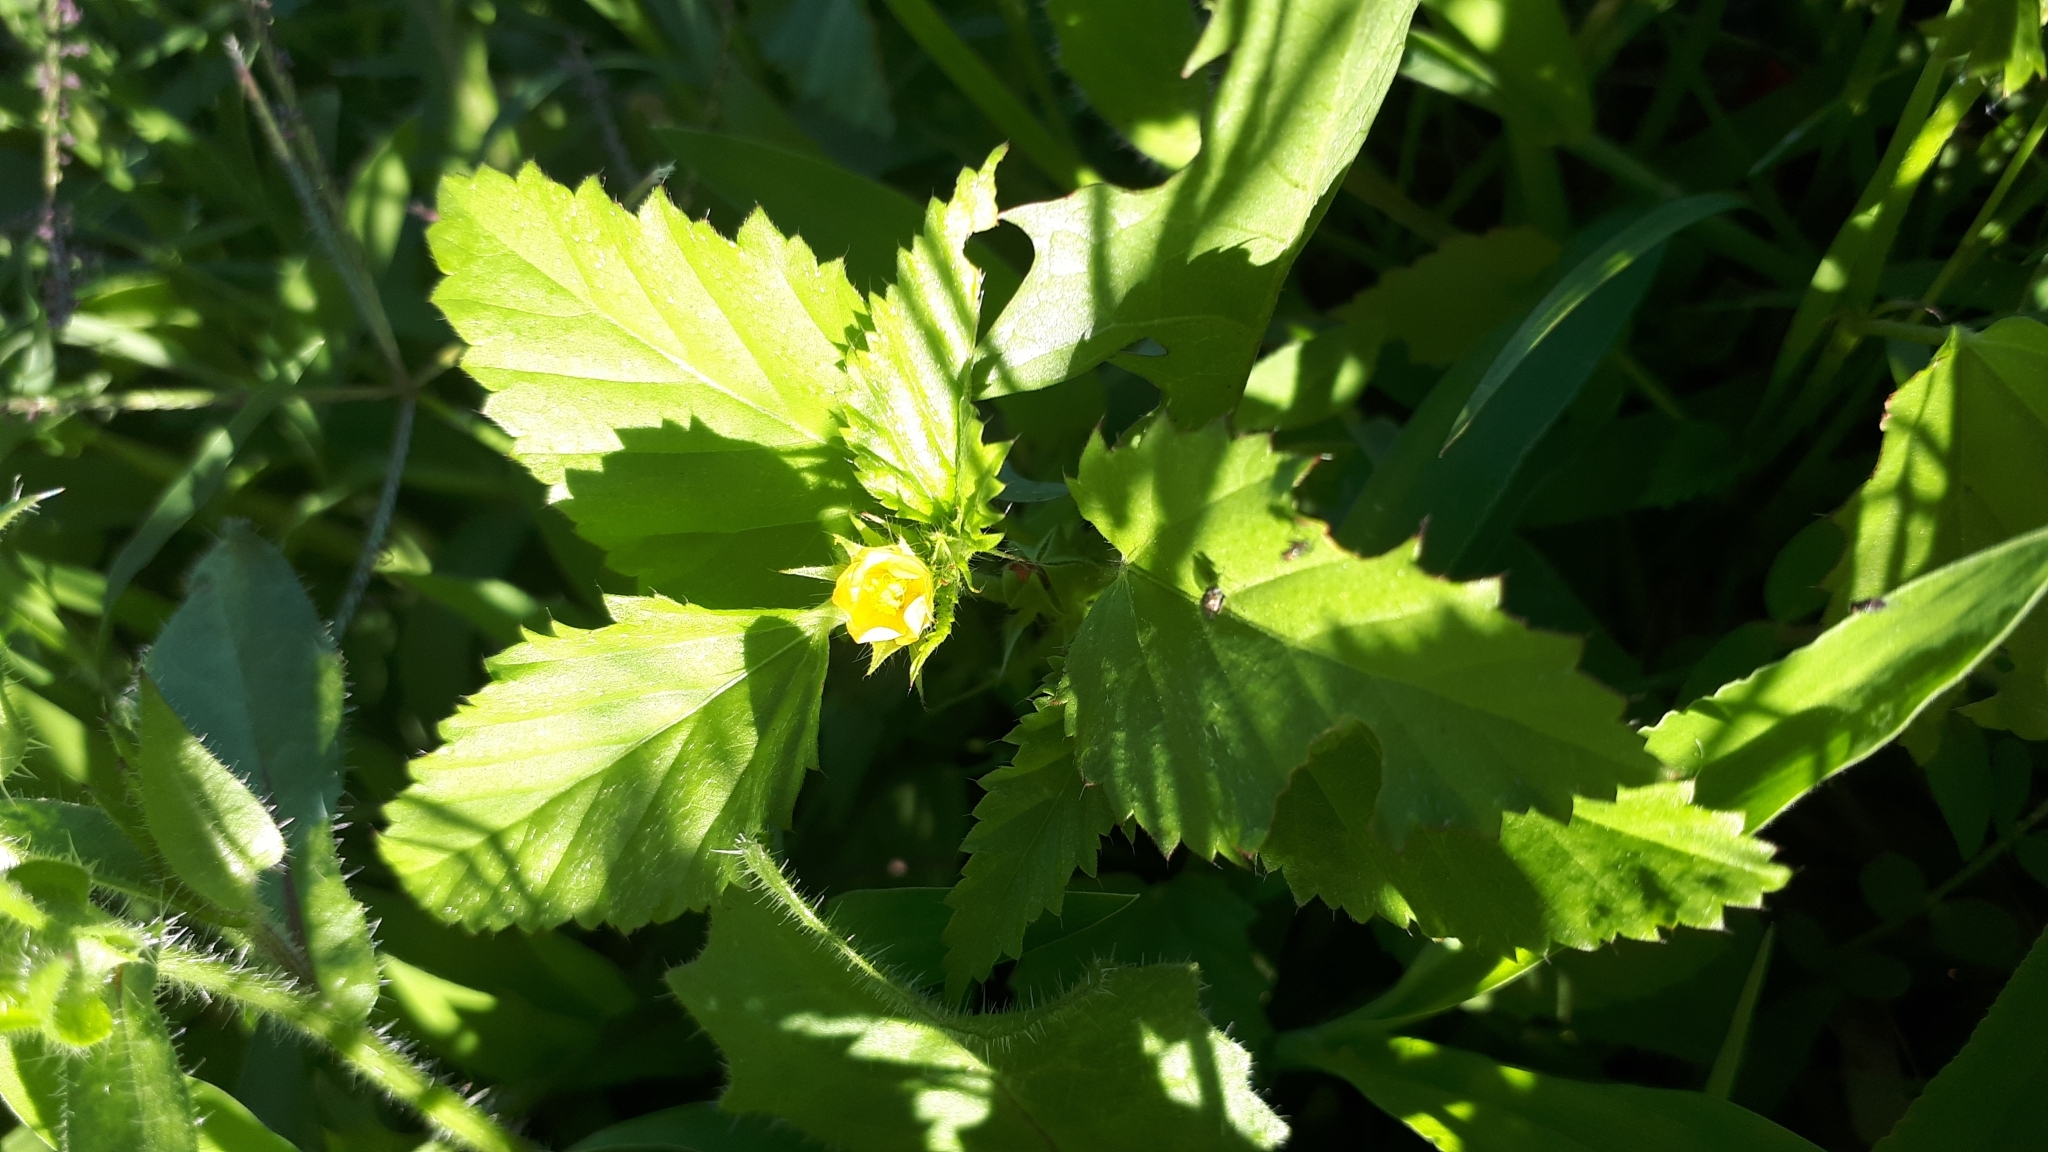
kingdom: Plantae
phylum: Tracheophyta
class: Magnoliopsida
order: Malvales
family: Malvaceae
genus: Malvastrum
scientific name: Malvastrum coromandelianum
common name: Threelobe false mallow
